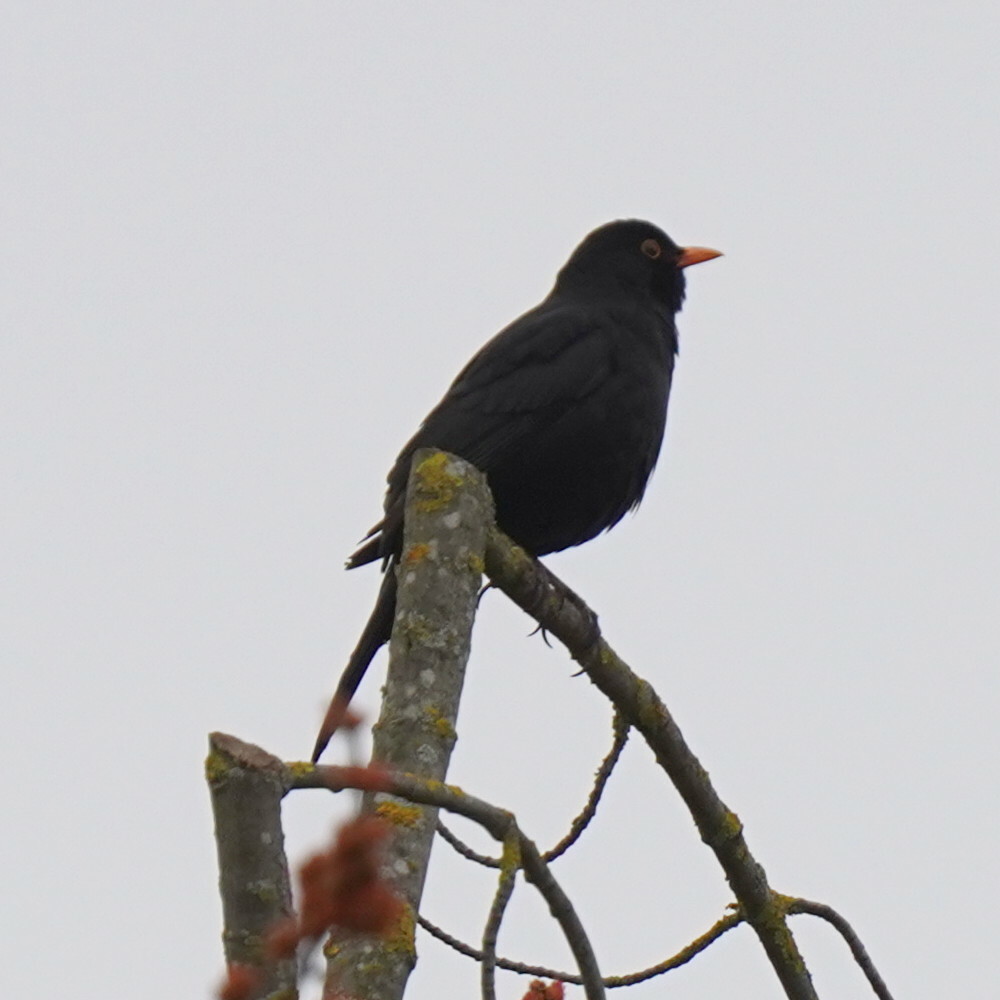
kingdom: Animalia
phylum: Chordata
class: Aves
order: Passeriformes
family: Turdidae
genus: Turdus
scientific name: Turdus merula
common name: Common blackbird
